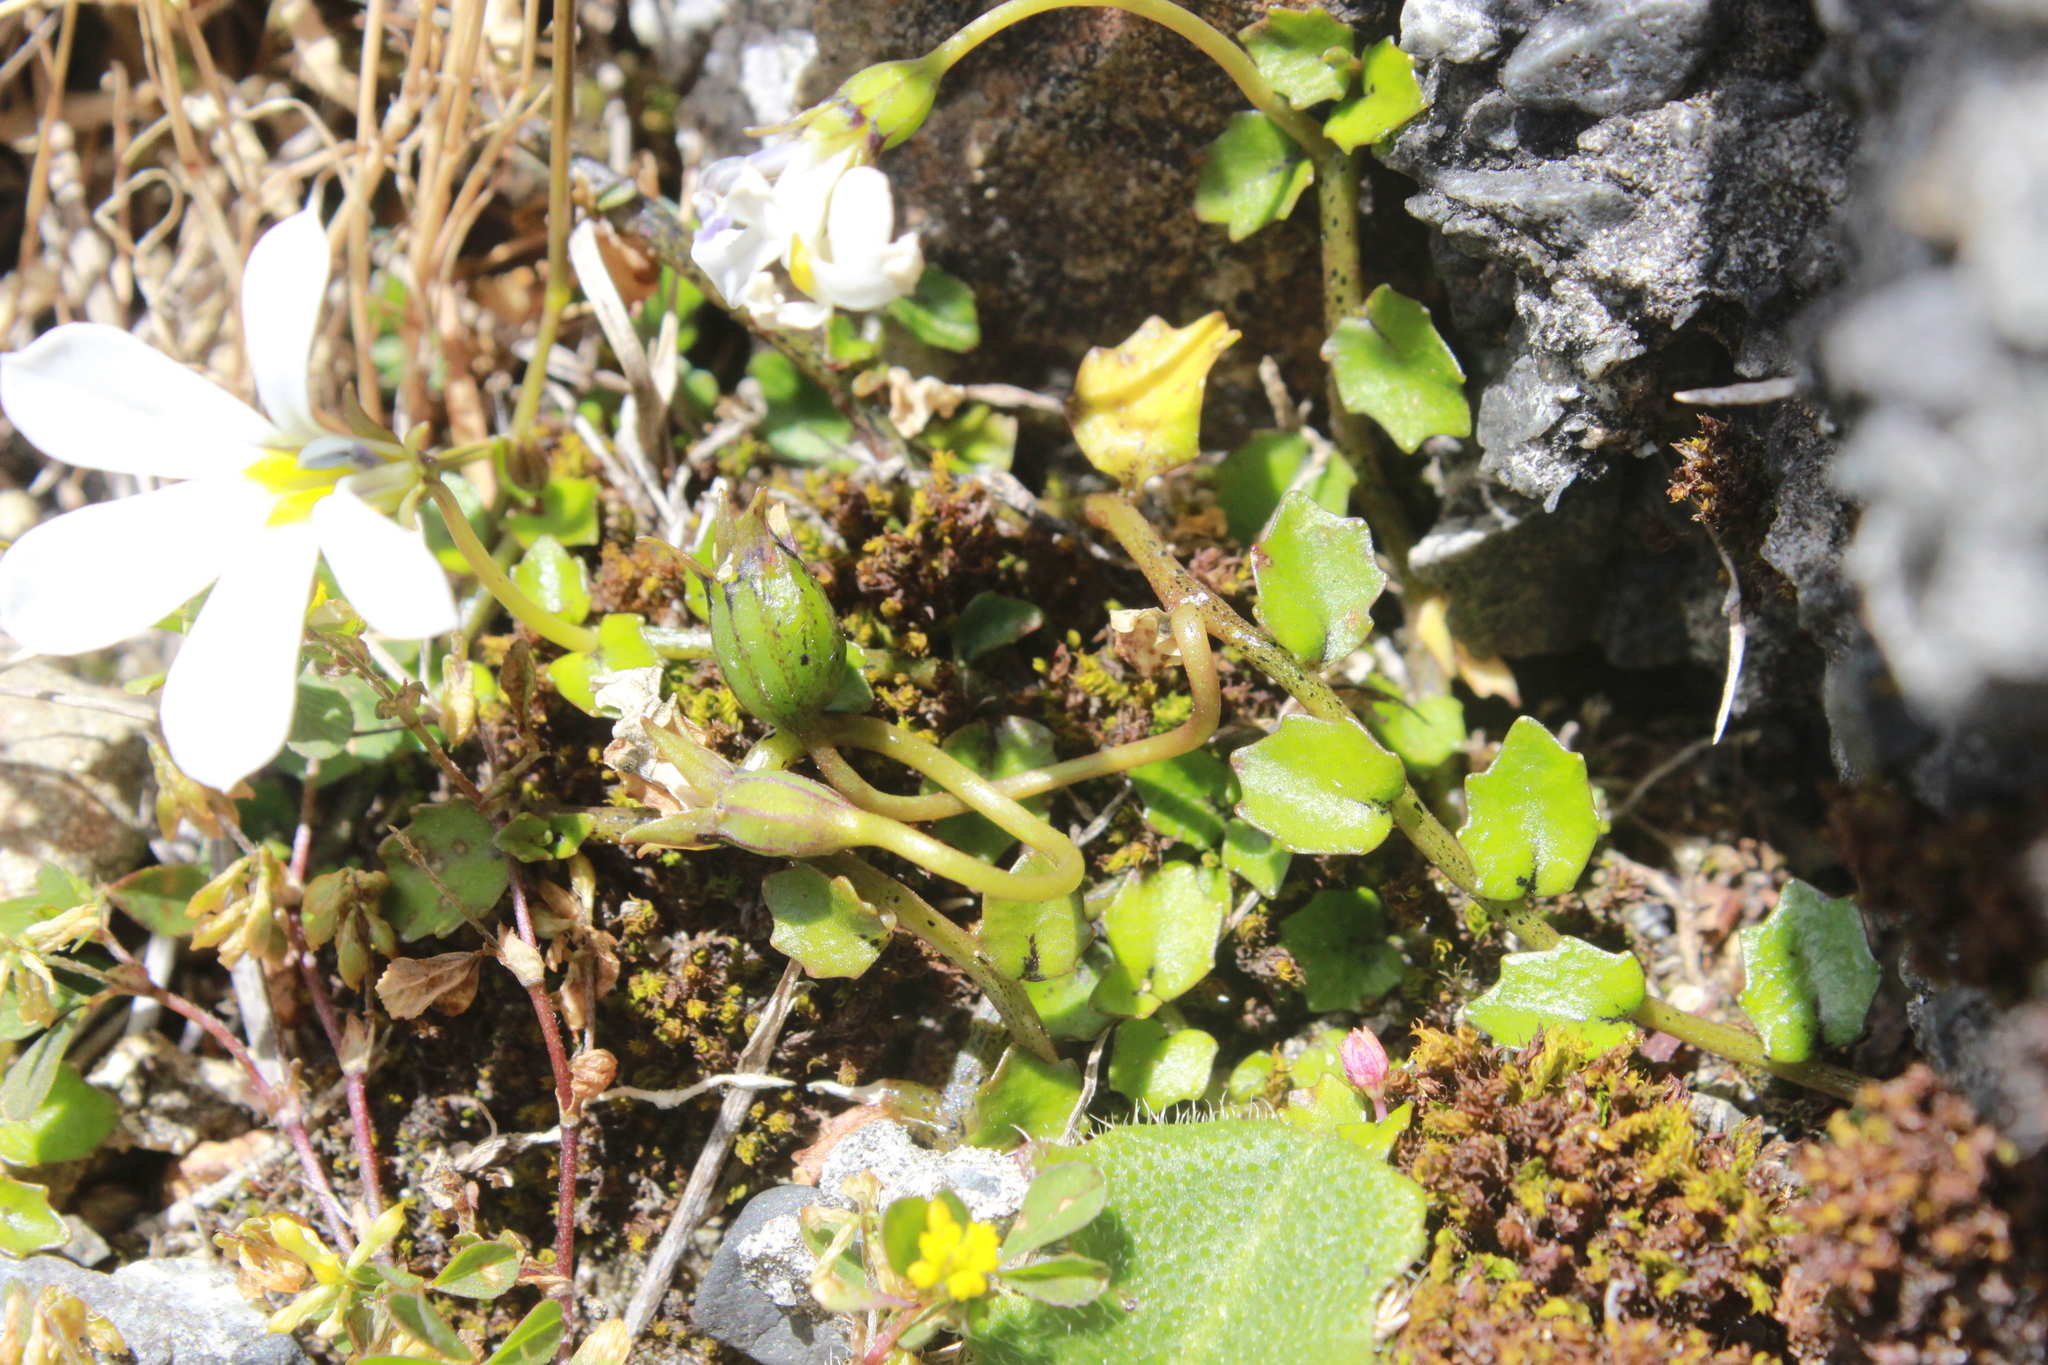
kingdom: Plantae
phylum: Tracheophyta
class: Magnoliopsida
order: Asterales
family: Campanulaceae
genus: Lobelia
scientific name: Lobelia angulata
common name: Lawn lobelia
